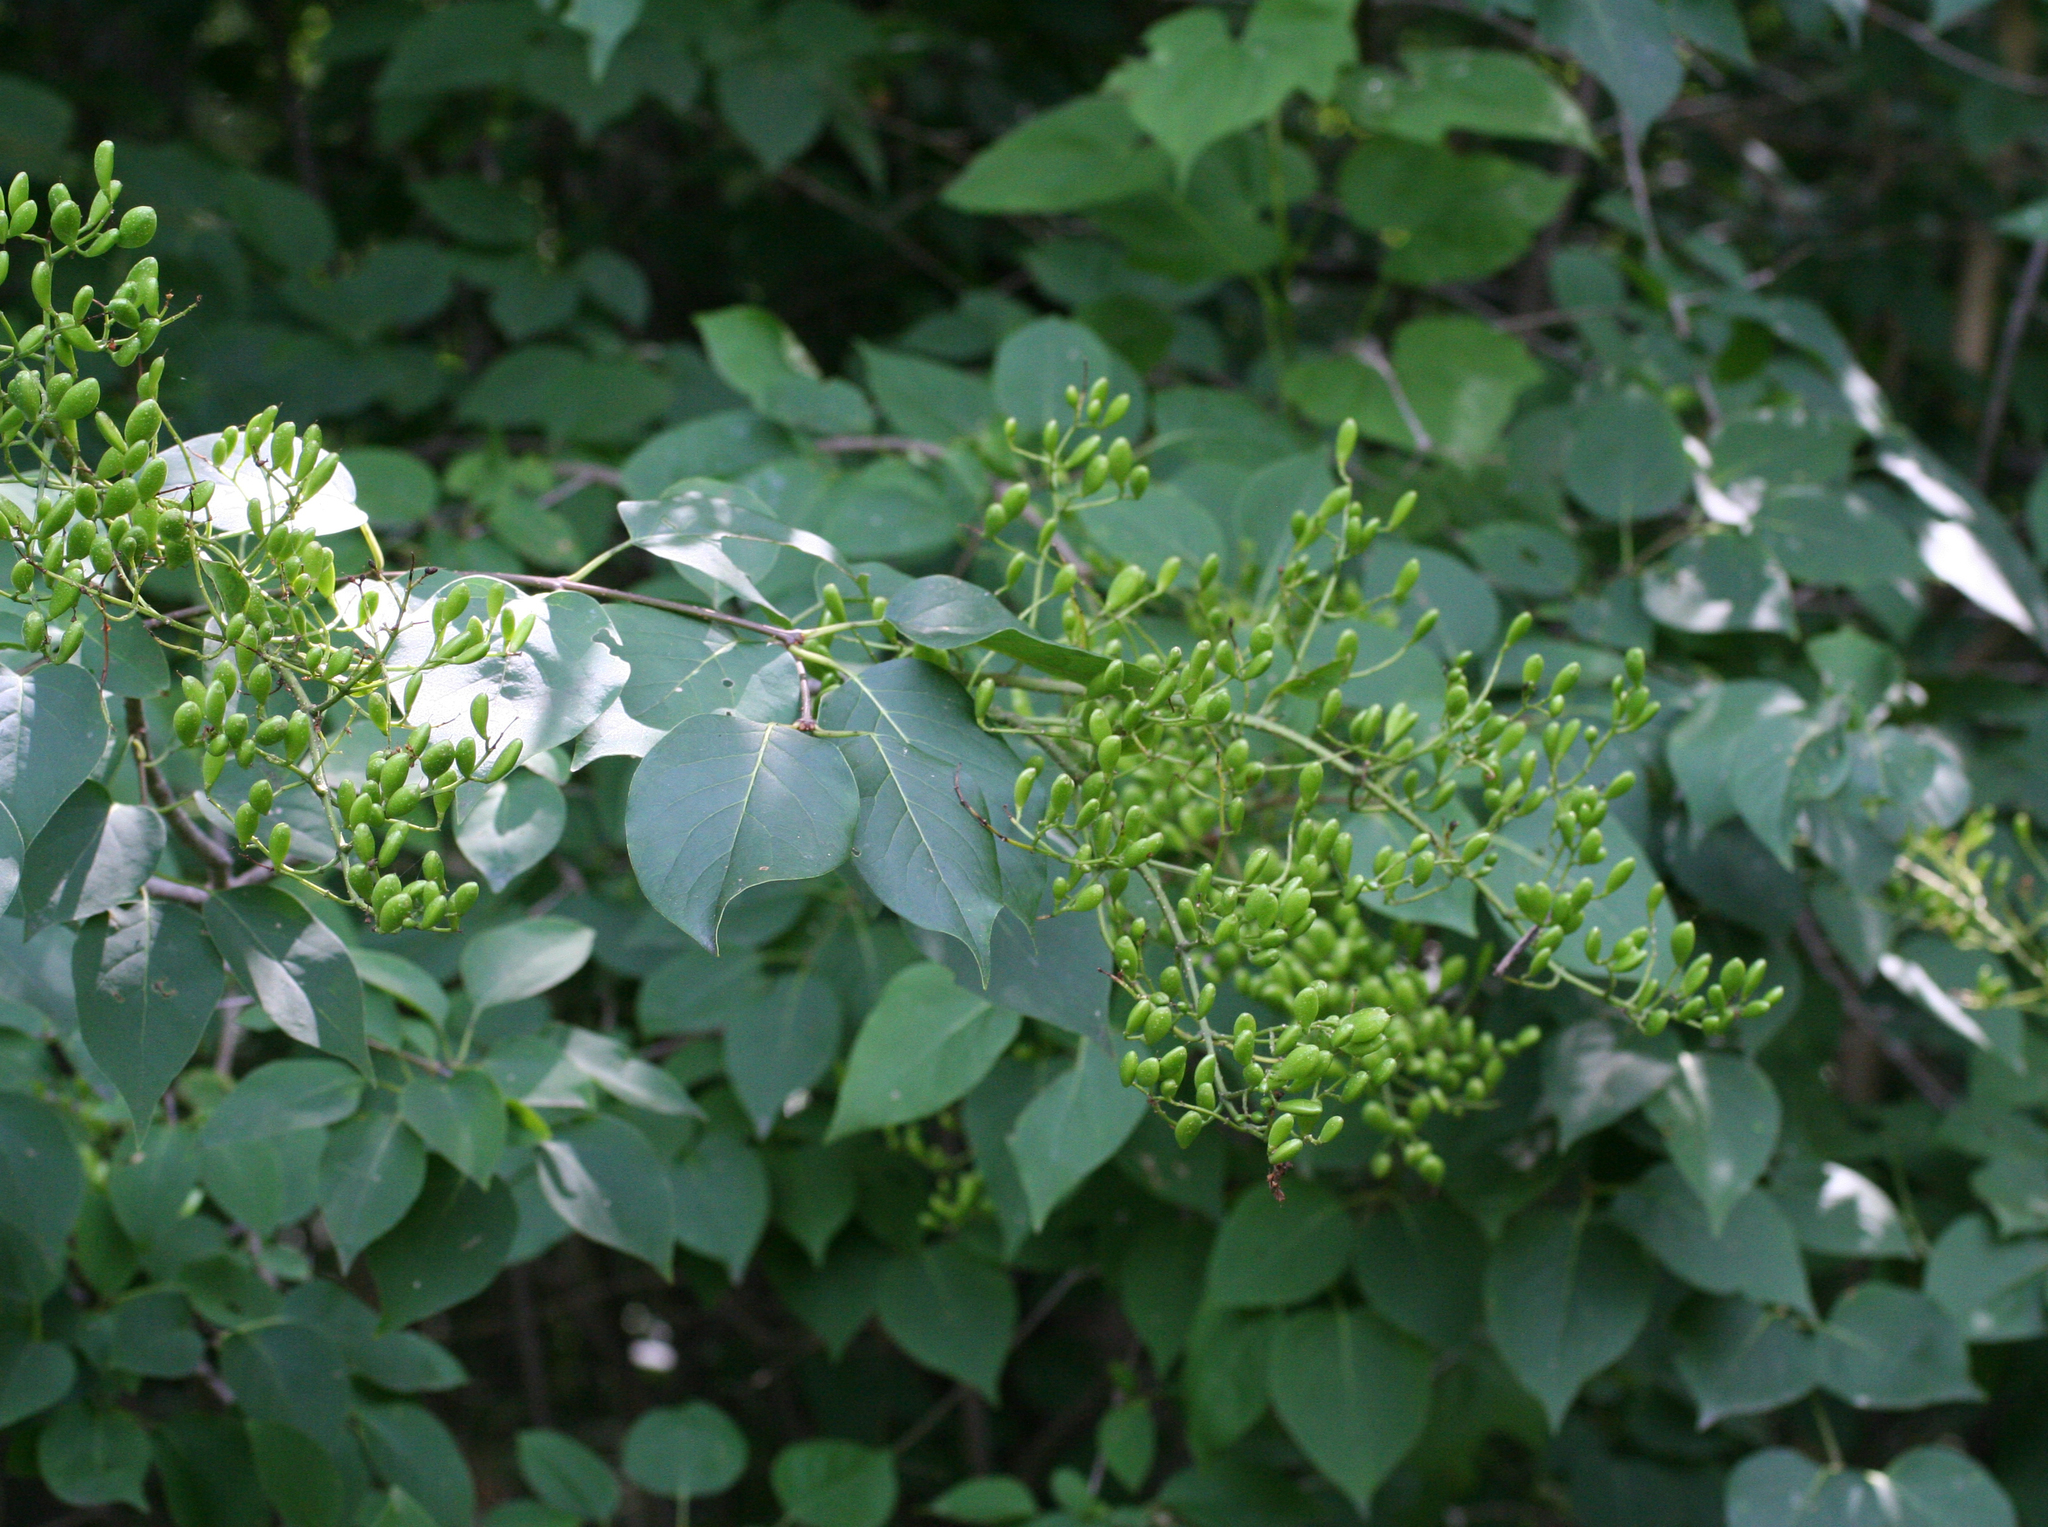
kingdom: Plantae
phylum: Tracheophyta
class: Magnoliopsida
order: Lamiales
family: Oleaceae
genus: Syringa
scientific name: Syringa reticulata
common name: Japanese tree lilac
